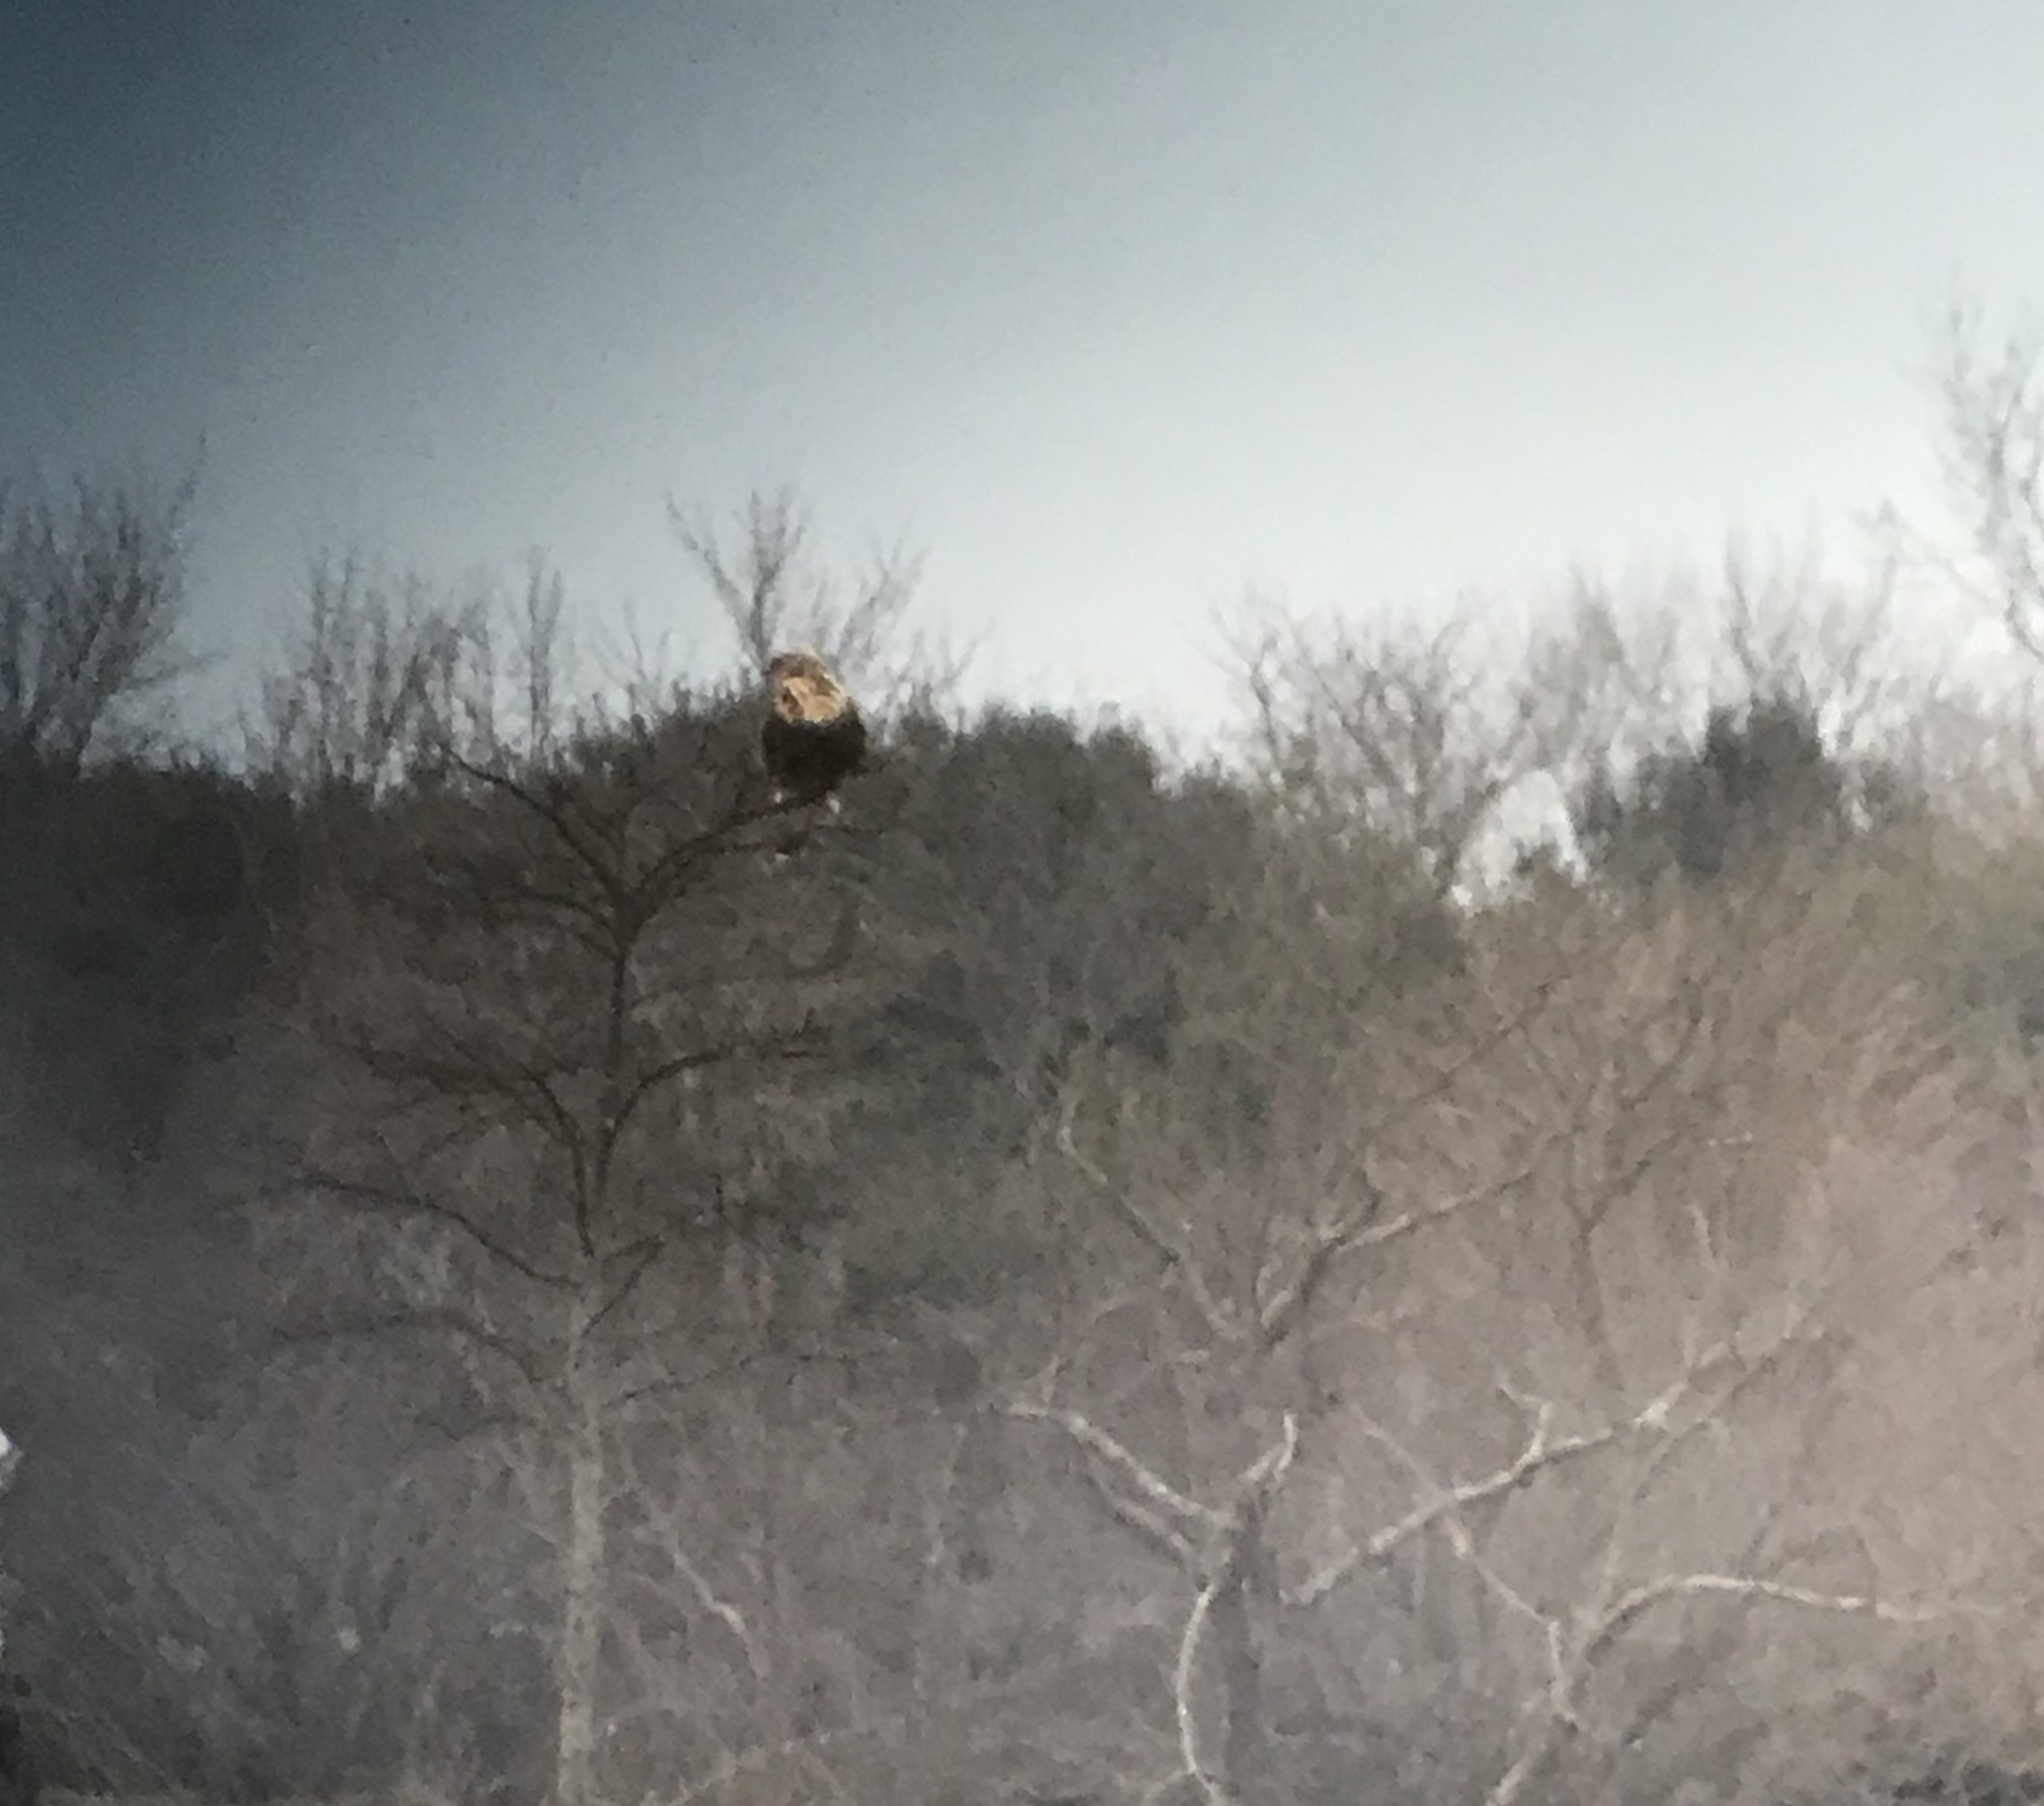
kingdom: Animalia
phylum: Chordata
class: Aves
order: Accipitriformes
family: Accipitridae
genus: Buteo
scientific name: Buteo lagopus
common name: Rough-legged buzzard
